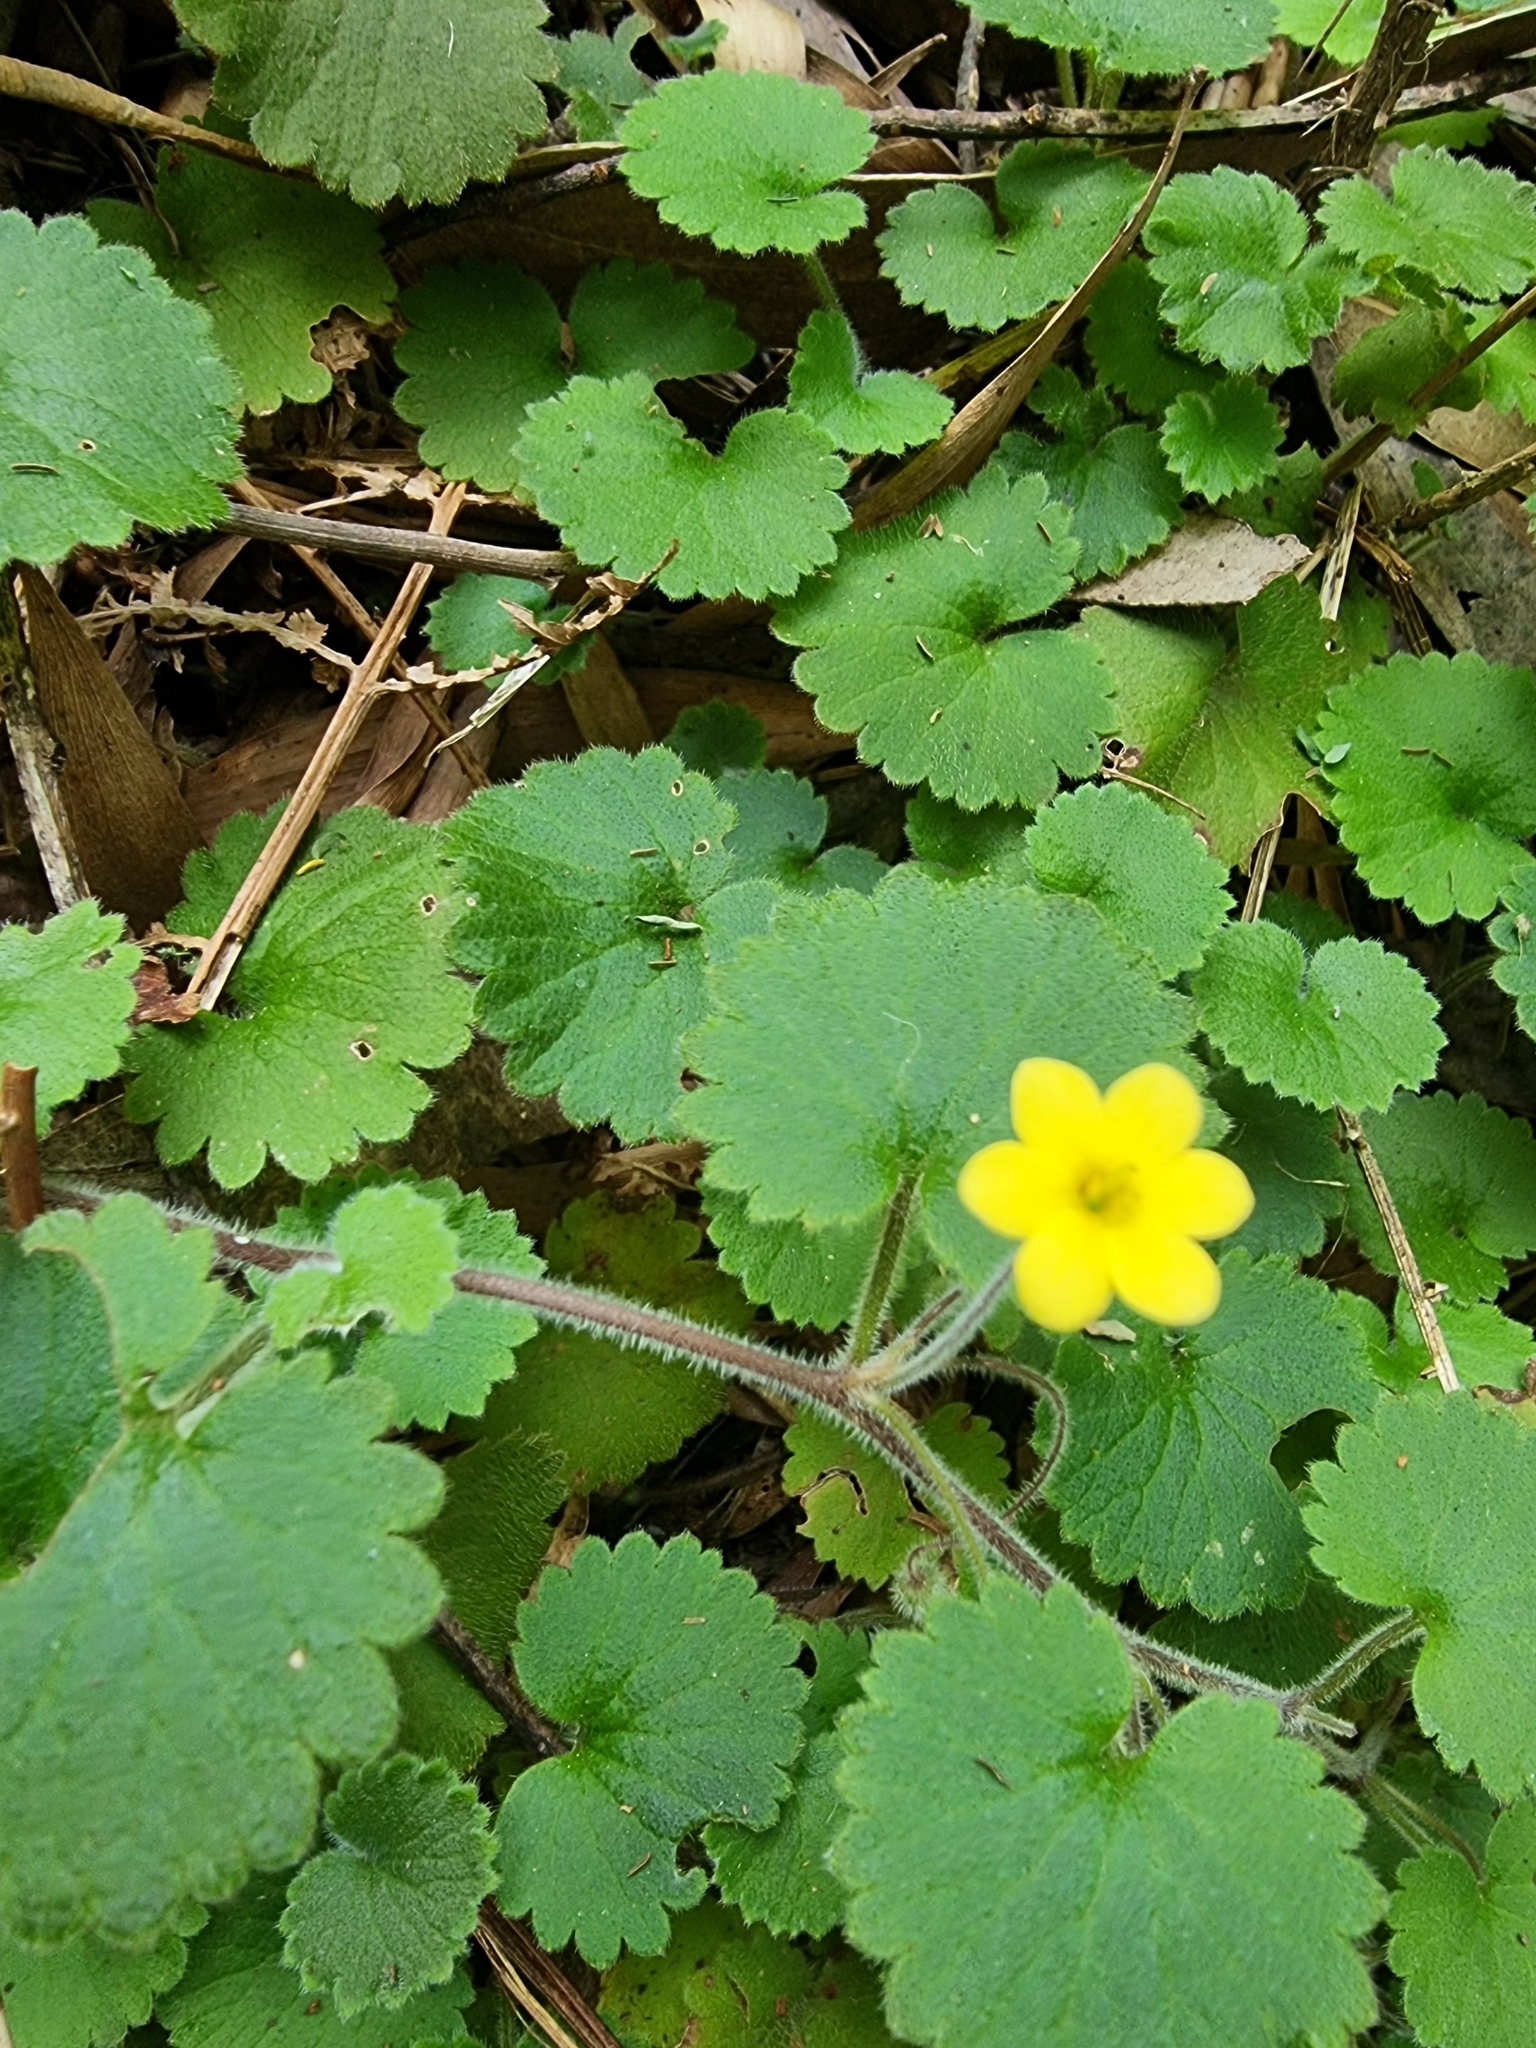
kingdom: Plantae
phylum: Tracheophyta
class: Magnoliopsida
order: Lamiales
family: Plantaginaceae
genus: Sibthorpia
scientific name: Sibthorpia peregrina
